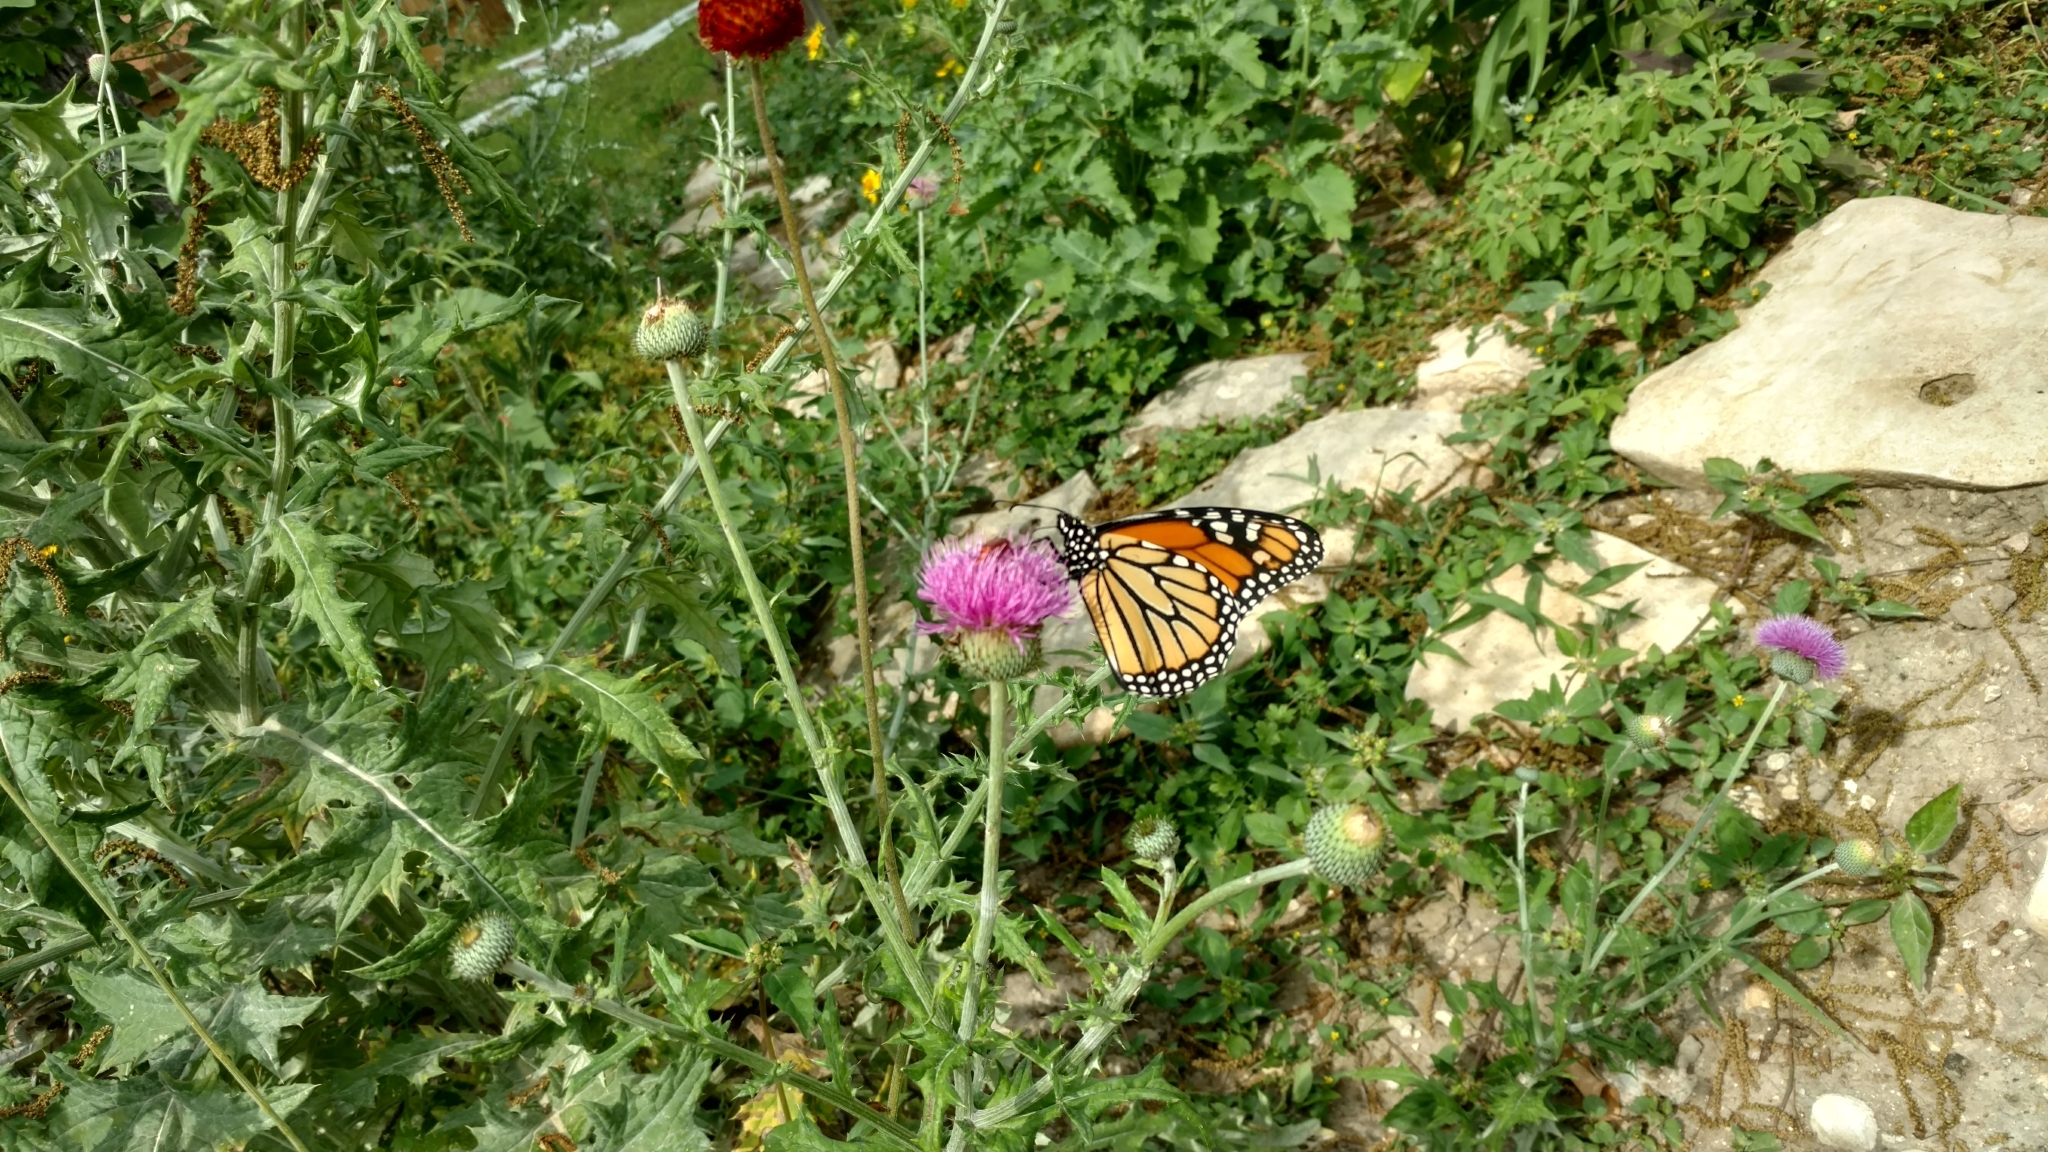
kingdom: Animalia
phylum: Arthropoda
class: Insecta
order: Lepidoptera
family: Nymphalidae
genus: Danaus
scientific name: Danaus plexippus
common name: Monarch
